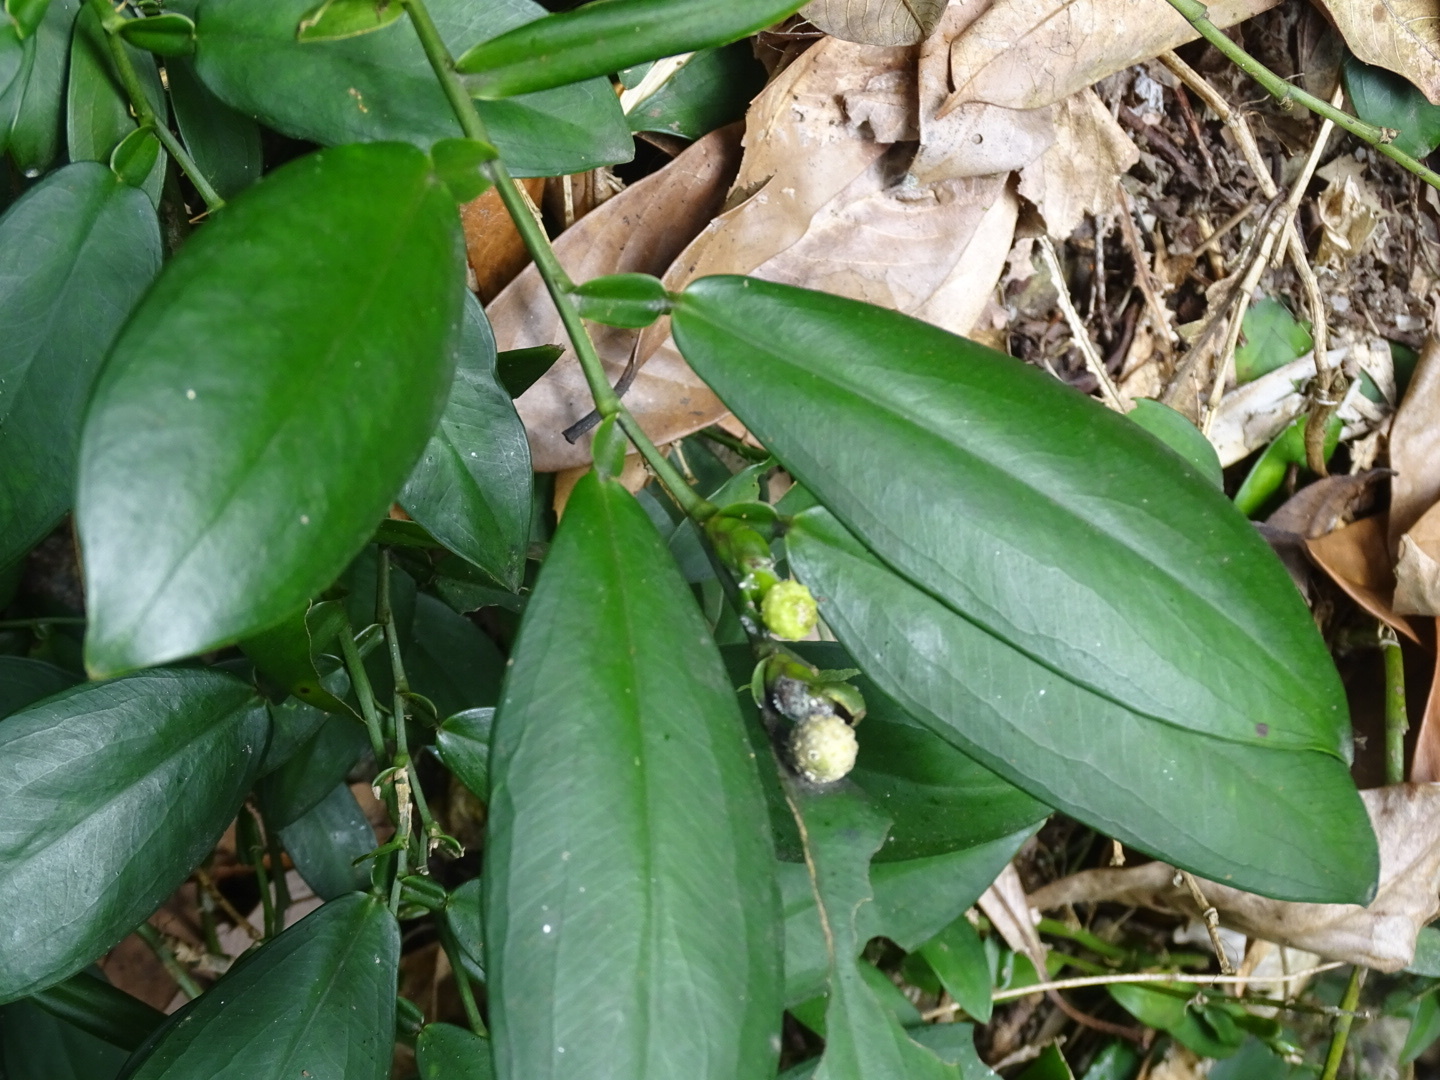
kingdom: Plantae
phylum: Tracheophyta
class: Liliopsida
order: Alismatales
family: Araceae
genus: Pothos
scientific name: Pothos chinensis
